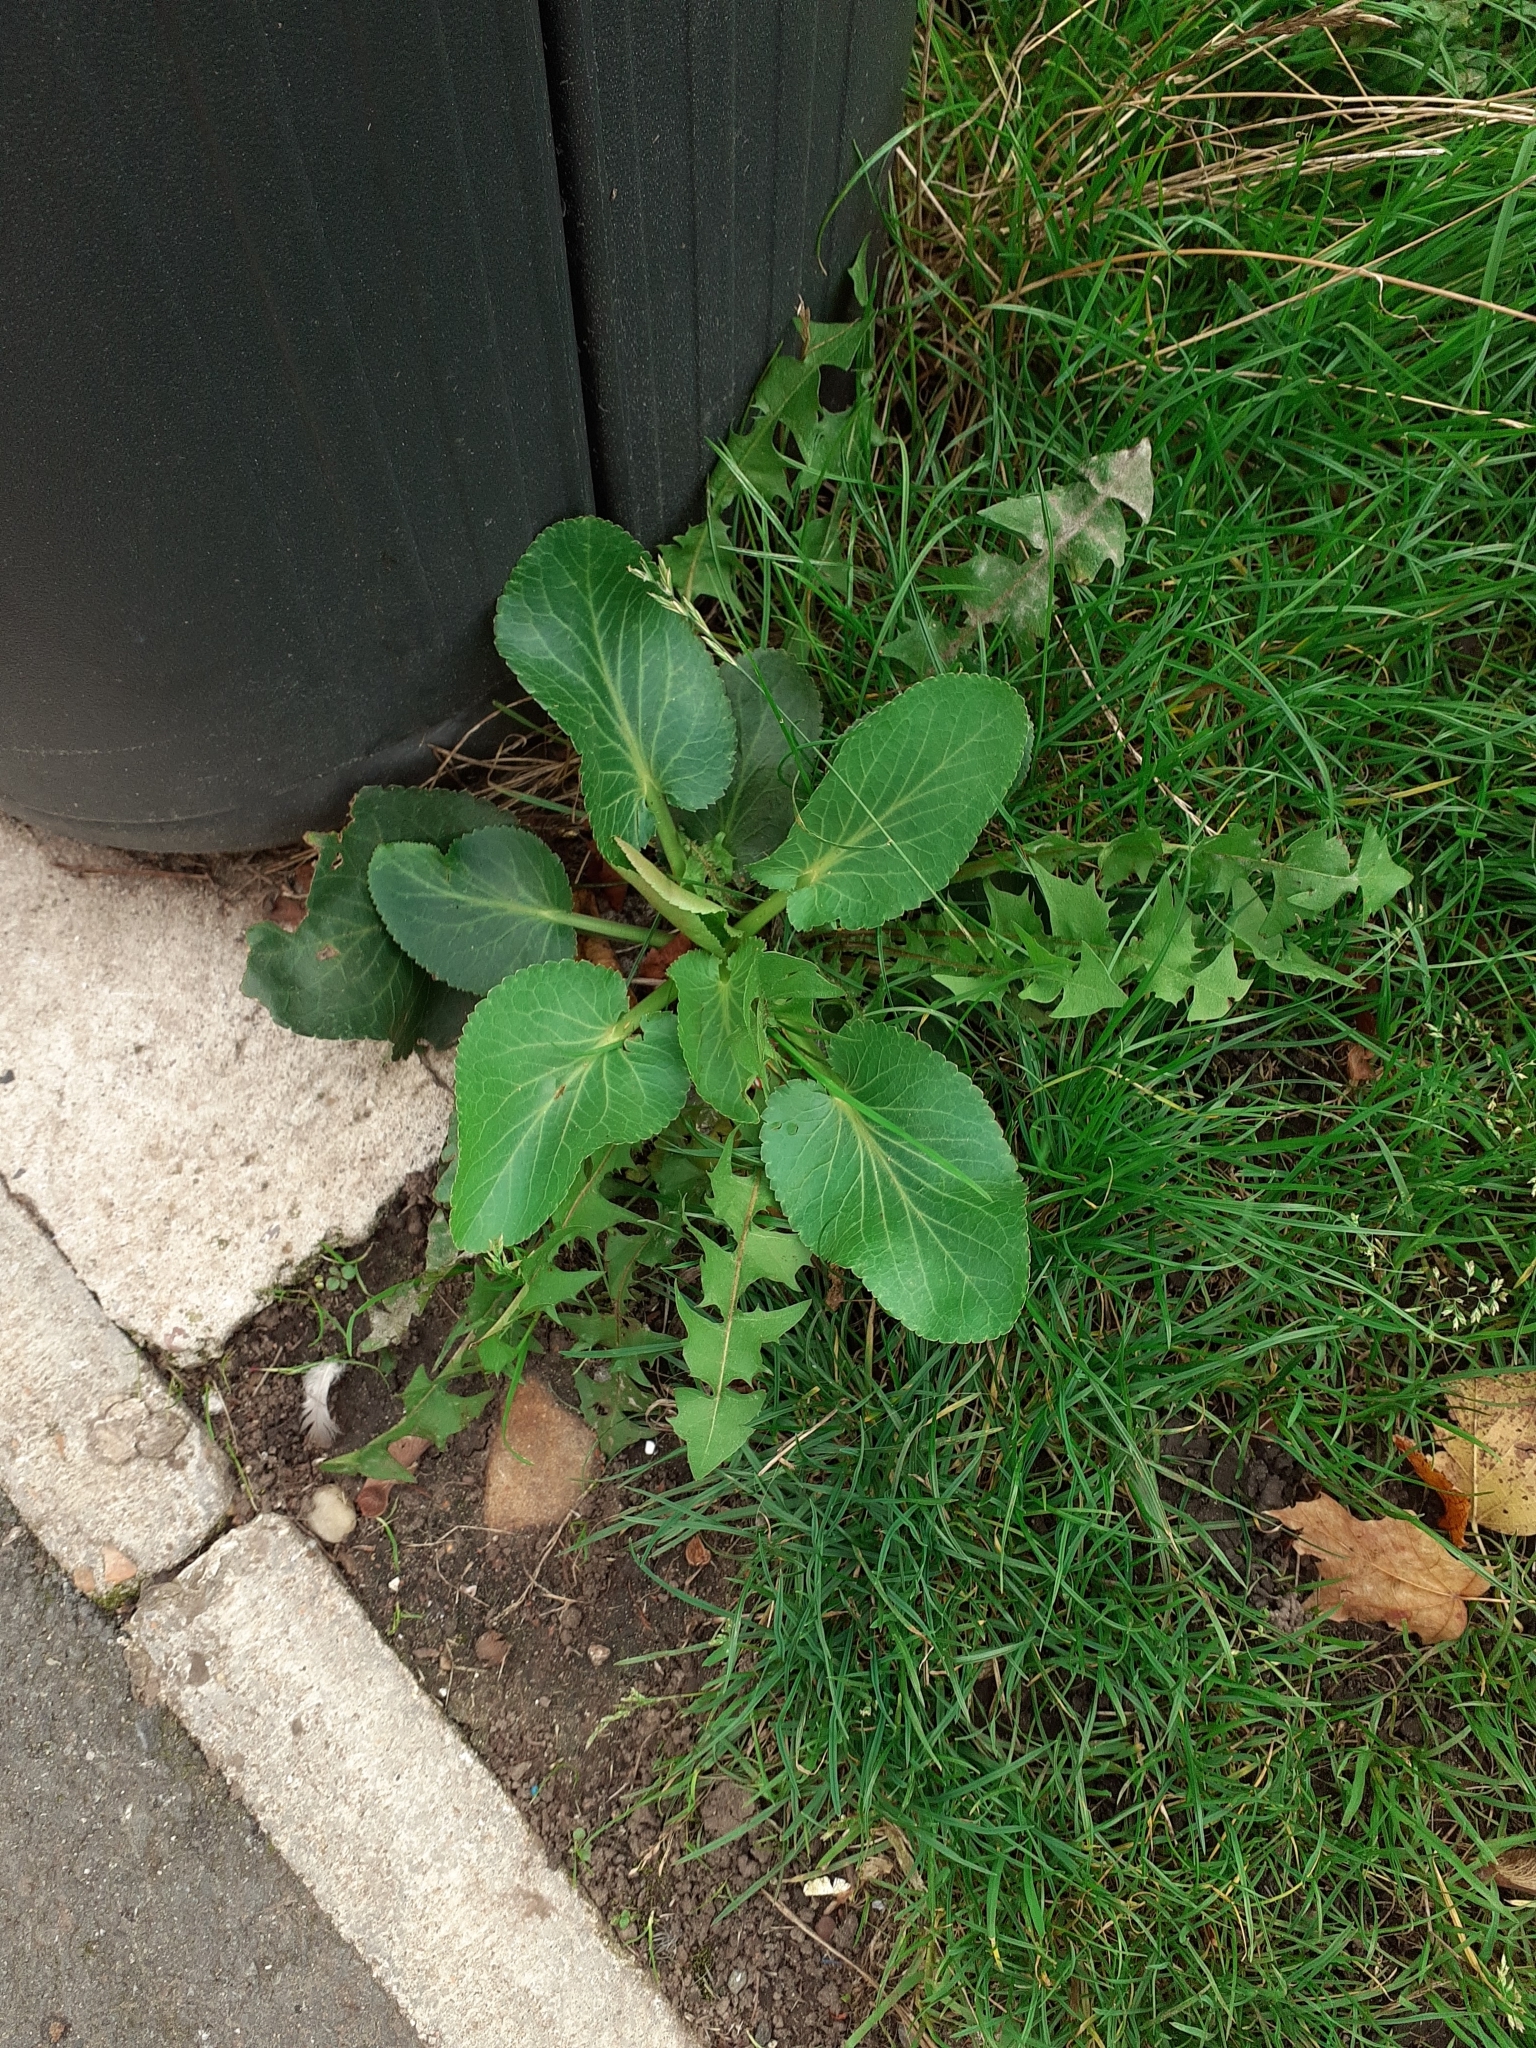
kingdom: Plantae
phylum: Tracheophyta
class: Magnoliopsida
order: Apiales
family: Apiaceae
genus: Eryngium
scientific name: Eryngium planum
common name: Blue eryngo
